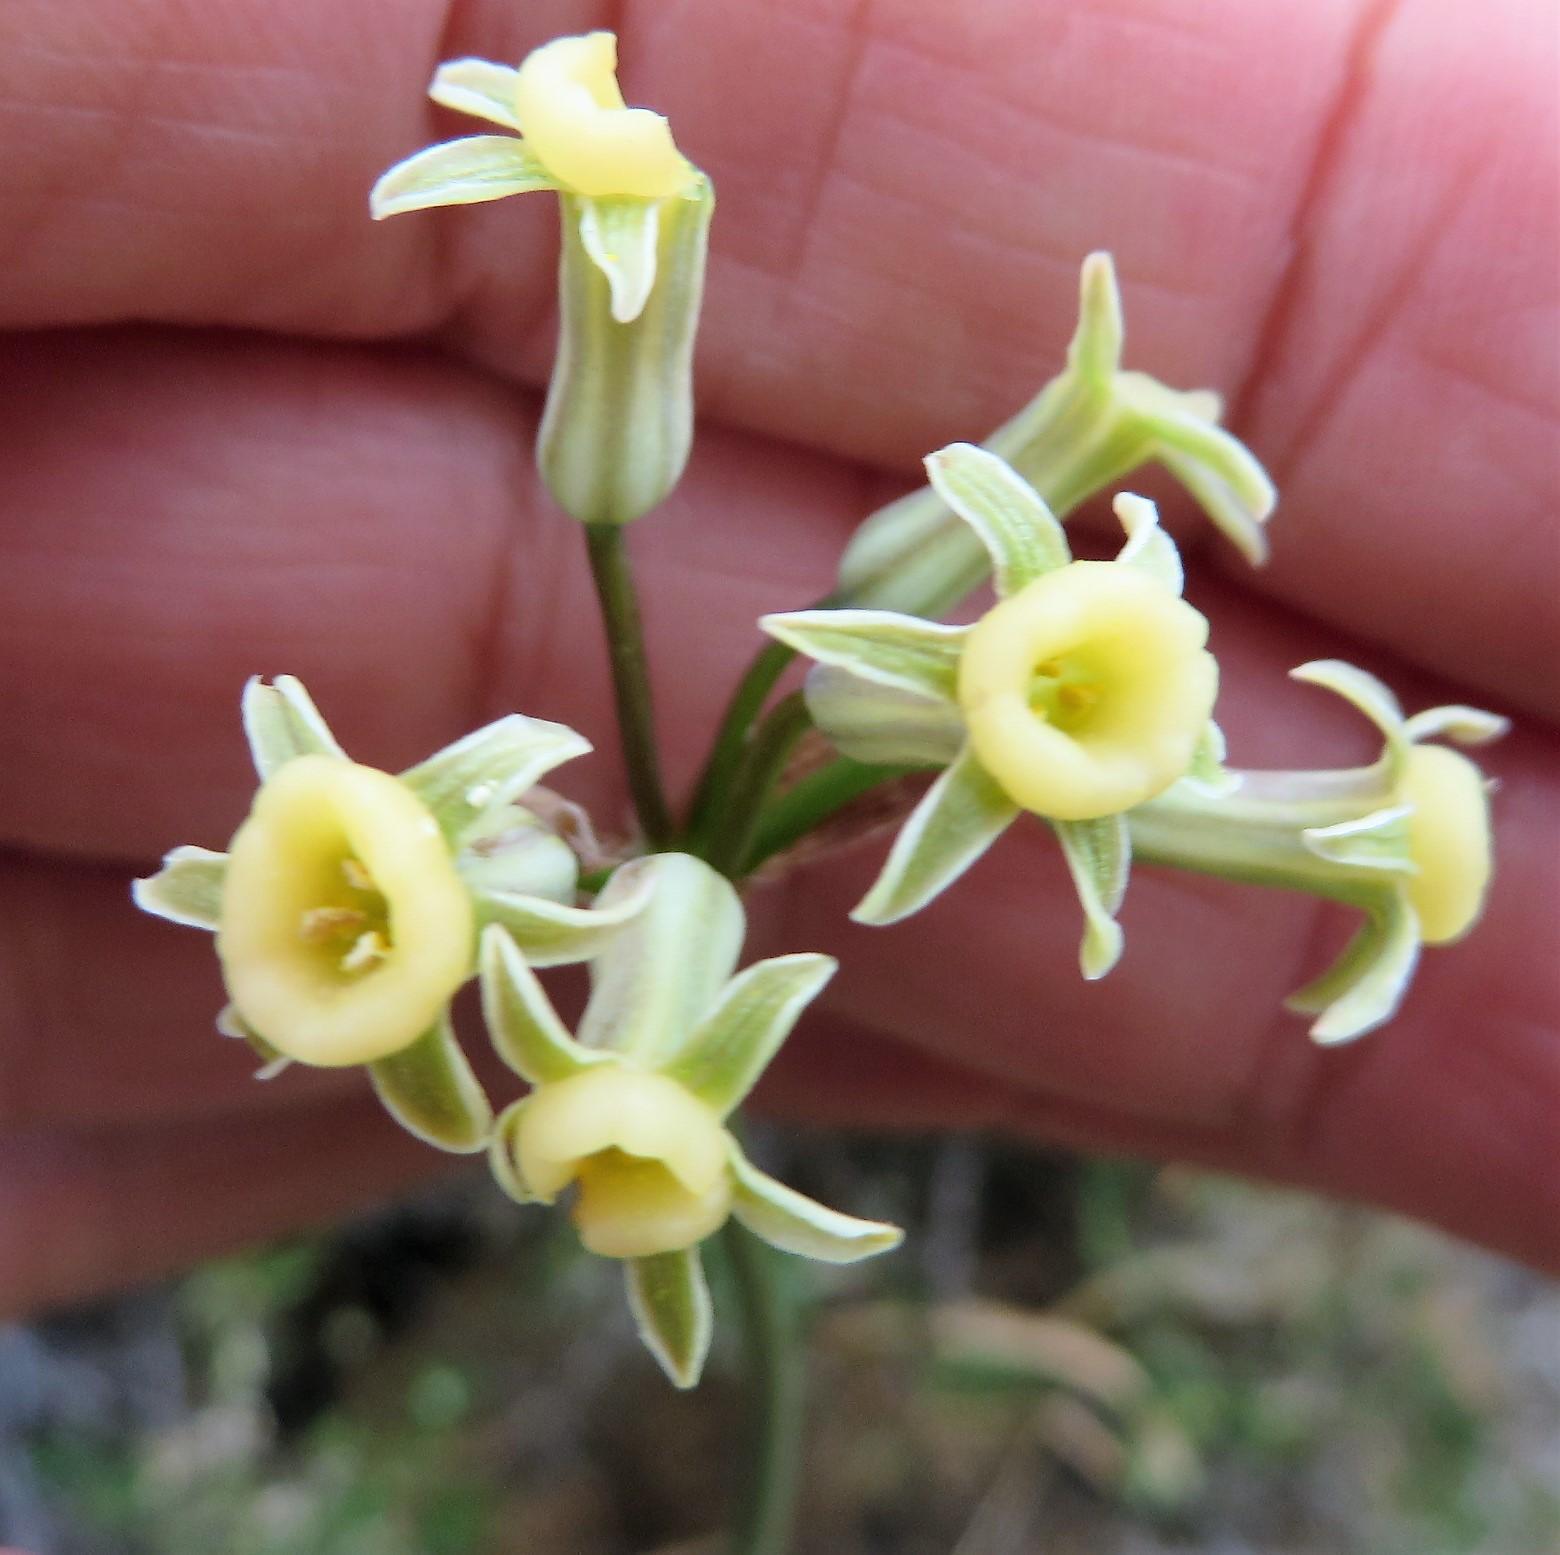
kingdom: Plantae
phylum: Tracheophyta
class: Liliopsida
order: Asparagales
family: Amaryllidaceae
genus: Tulbaghia
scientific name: Tulbaghia dregeana
